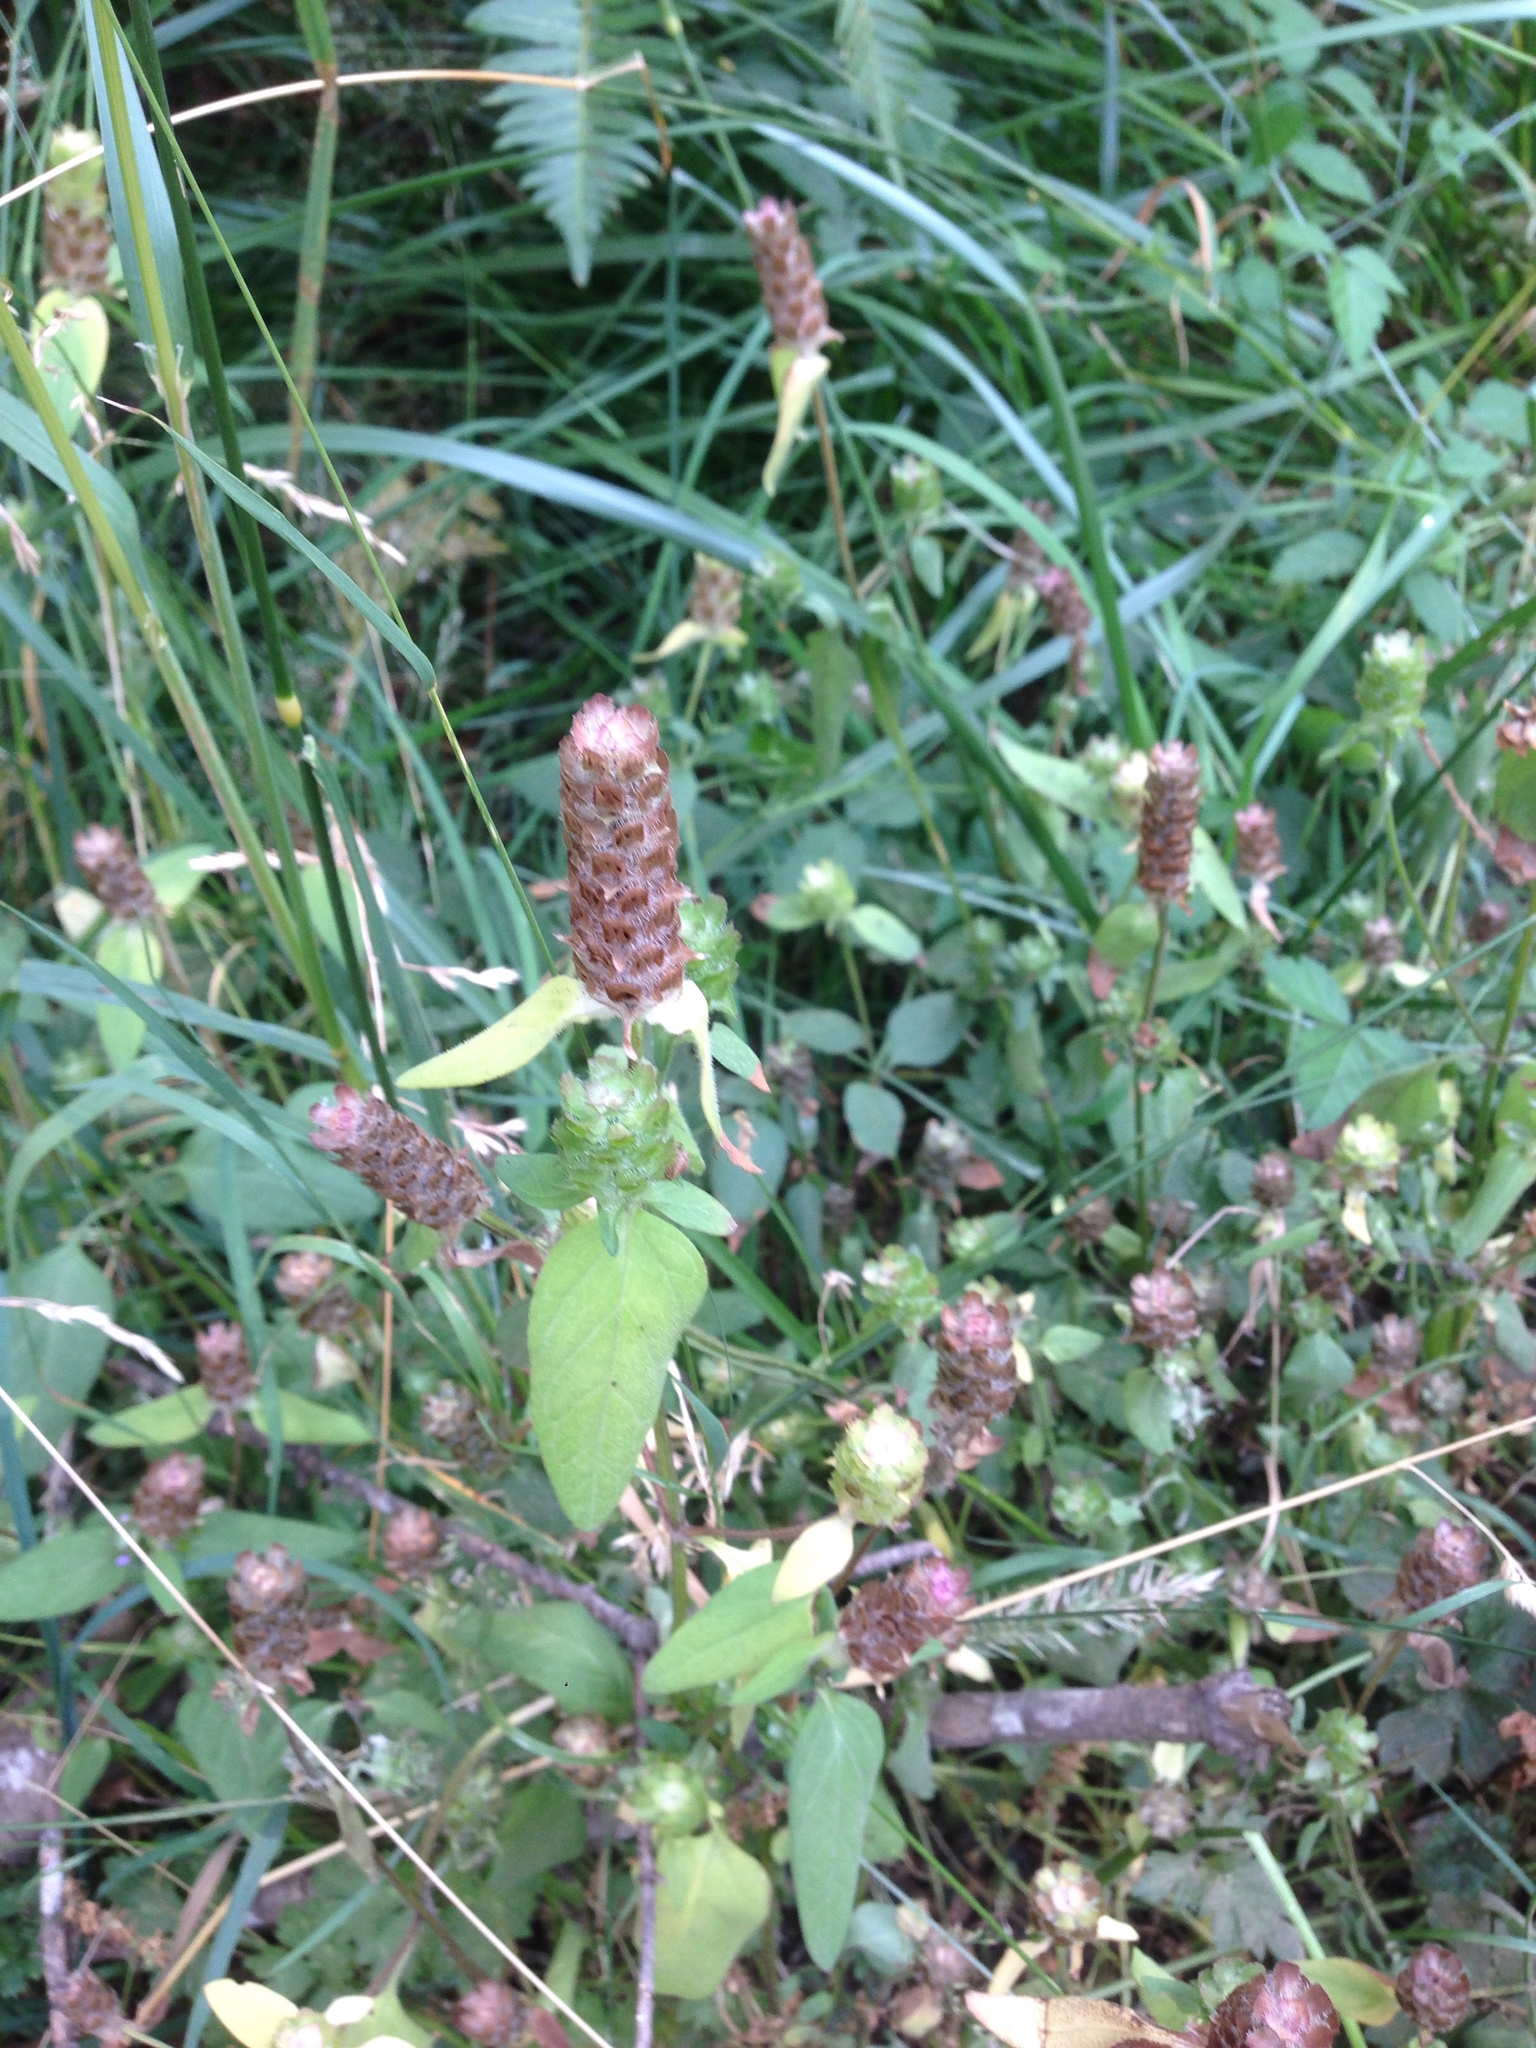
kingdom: Plantae
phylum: Tracheophyta
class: Magnoliopsida
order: Lamiales
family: Lamiaceae
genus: Prunella
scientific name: Prunella vulgaris
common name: Heal-all
